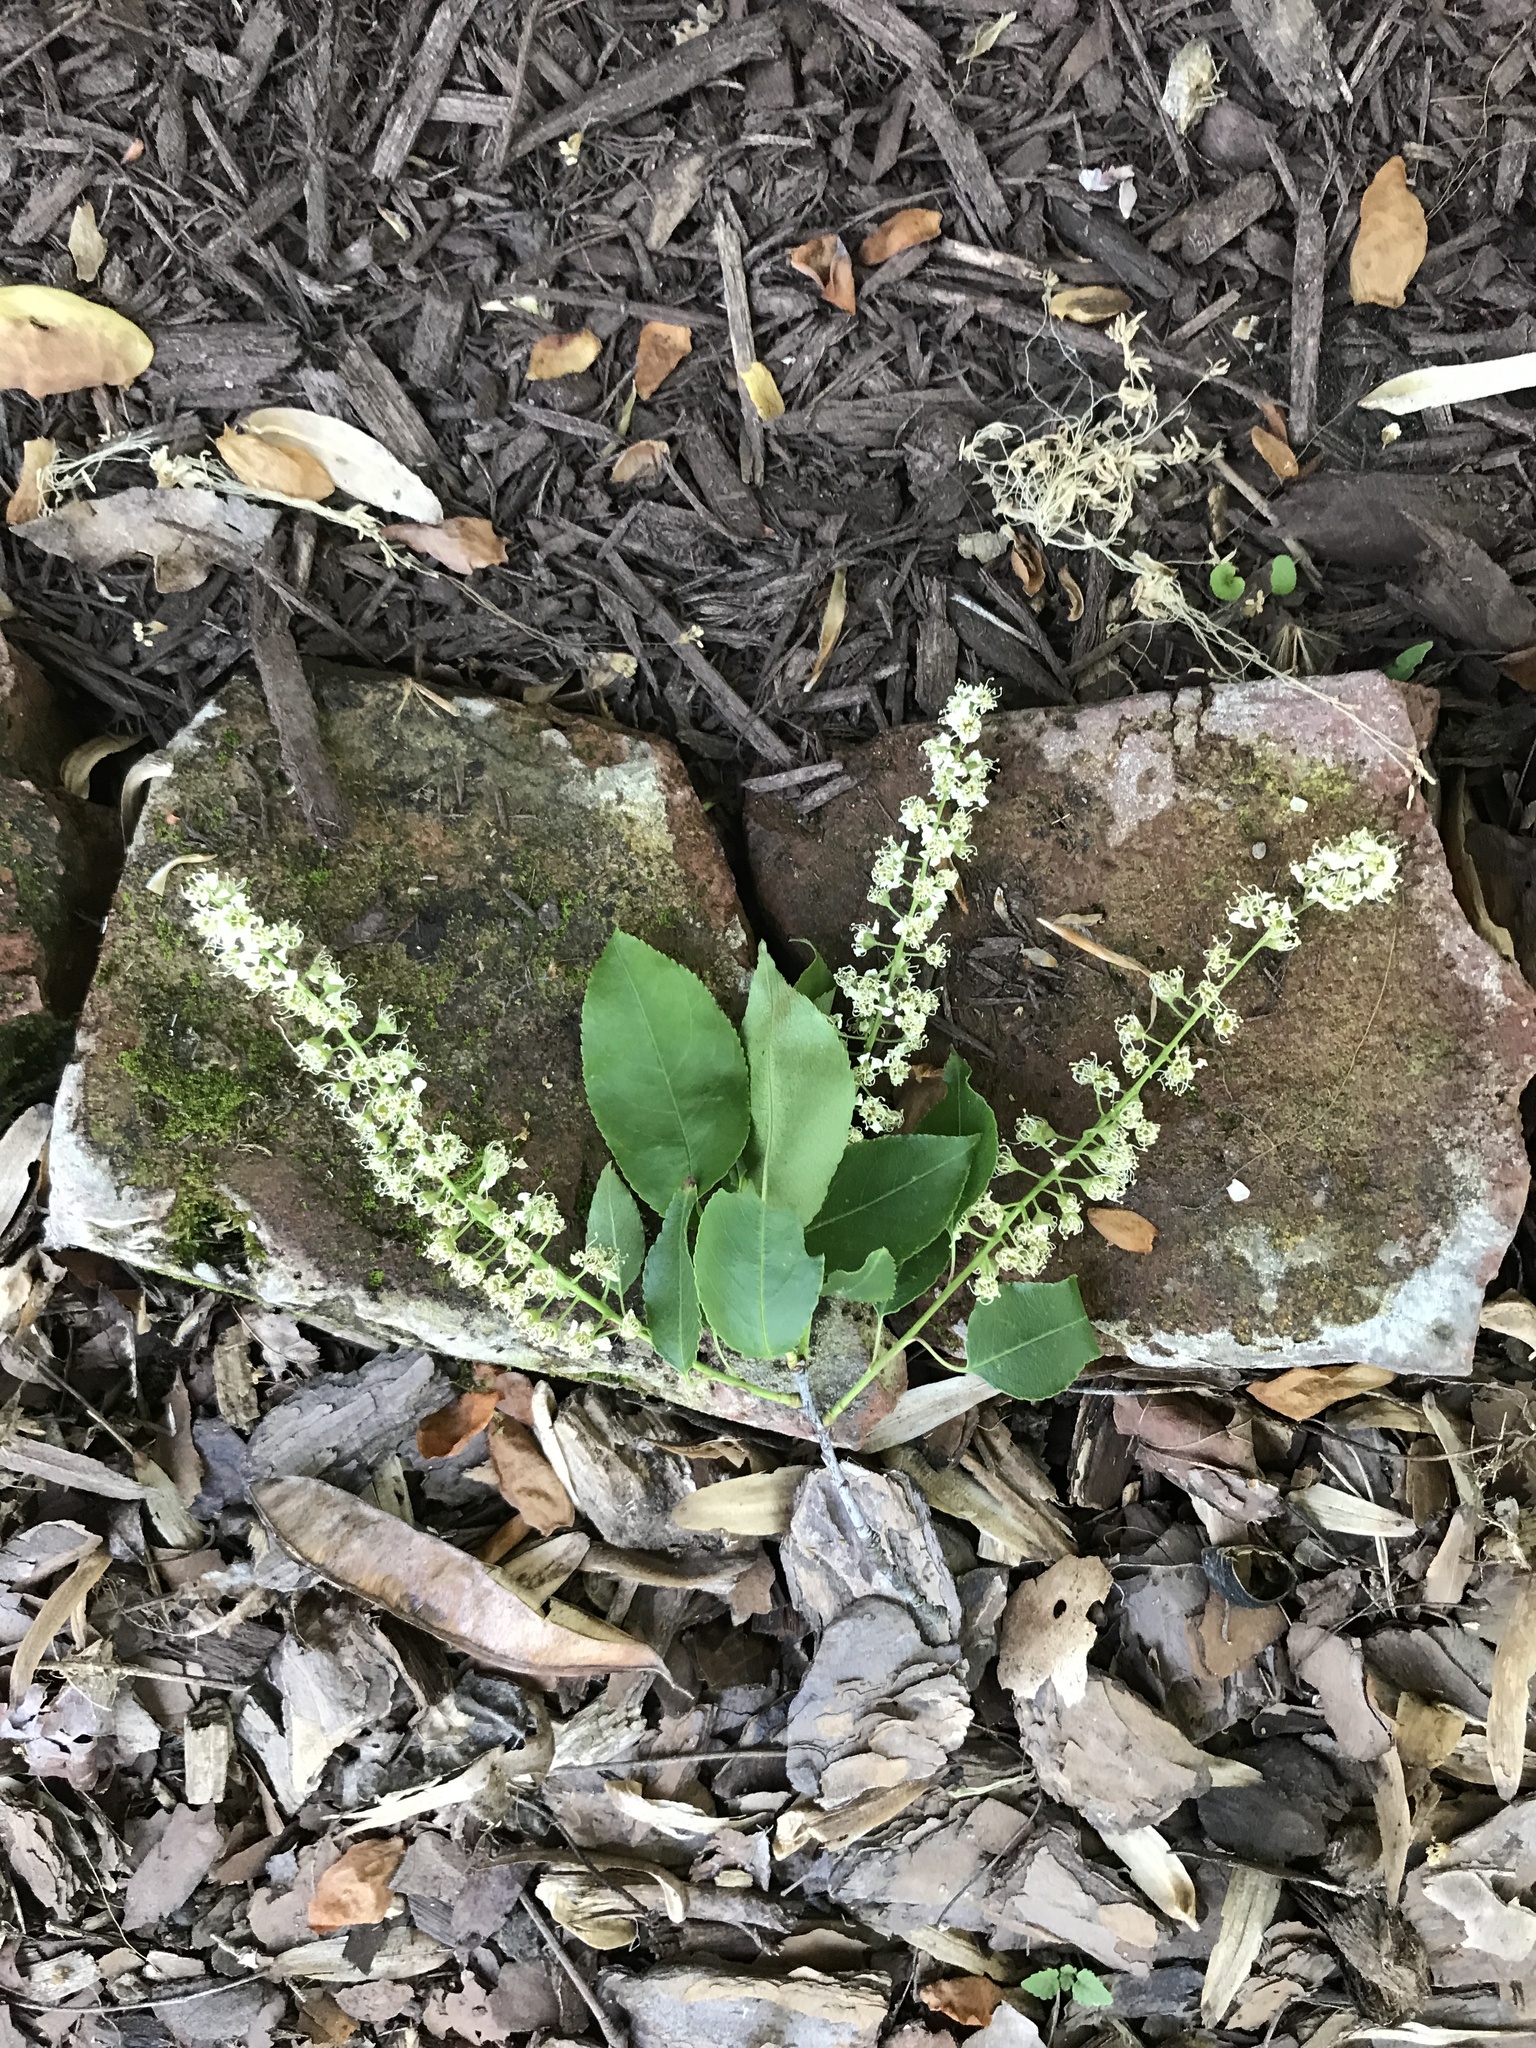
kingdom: Plantae
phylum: Tracheophyta
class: Magnoliopsida
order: Rosales
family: Rosaceae
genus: Prunus
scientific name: Prunus serotina
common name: Black cherry
